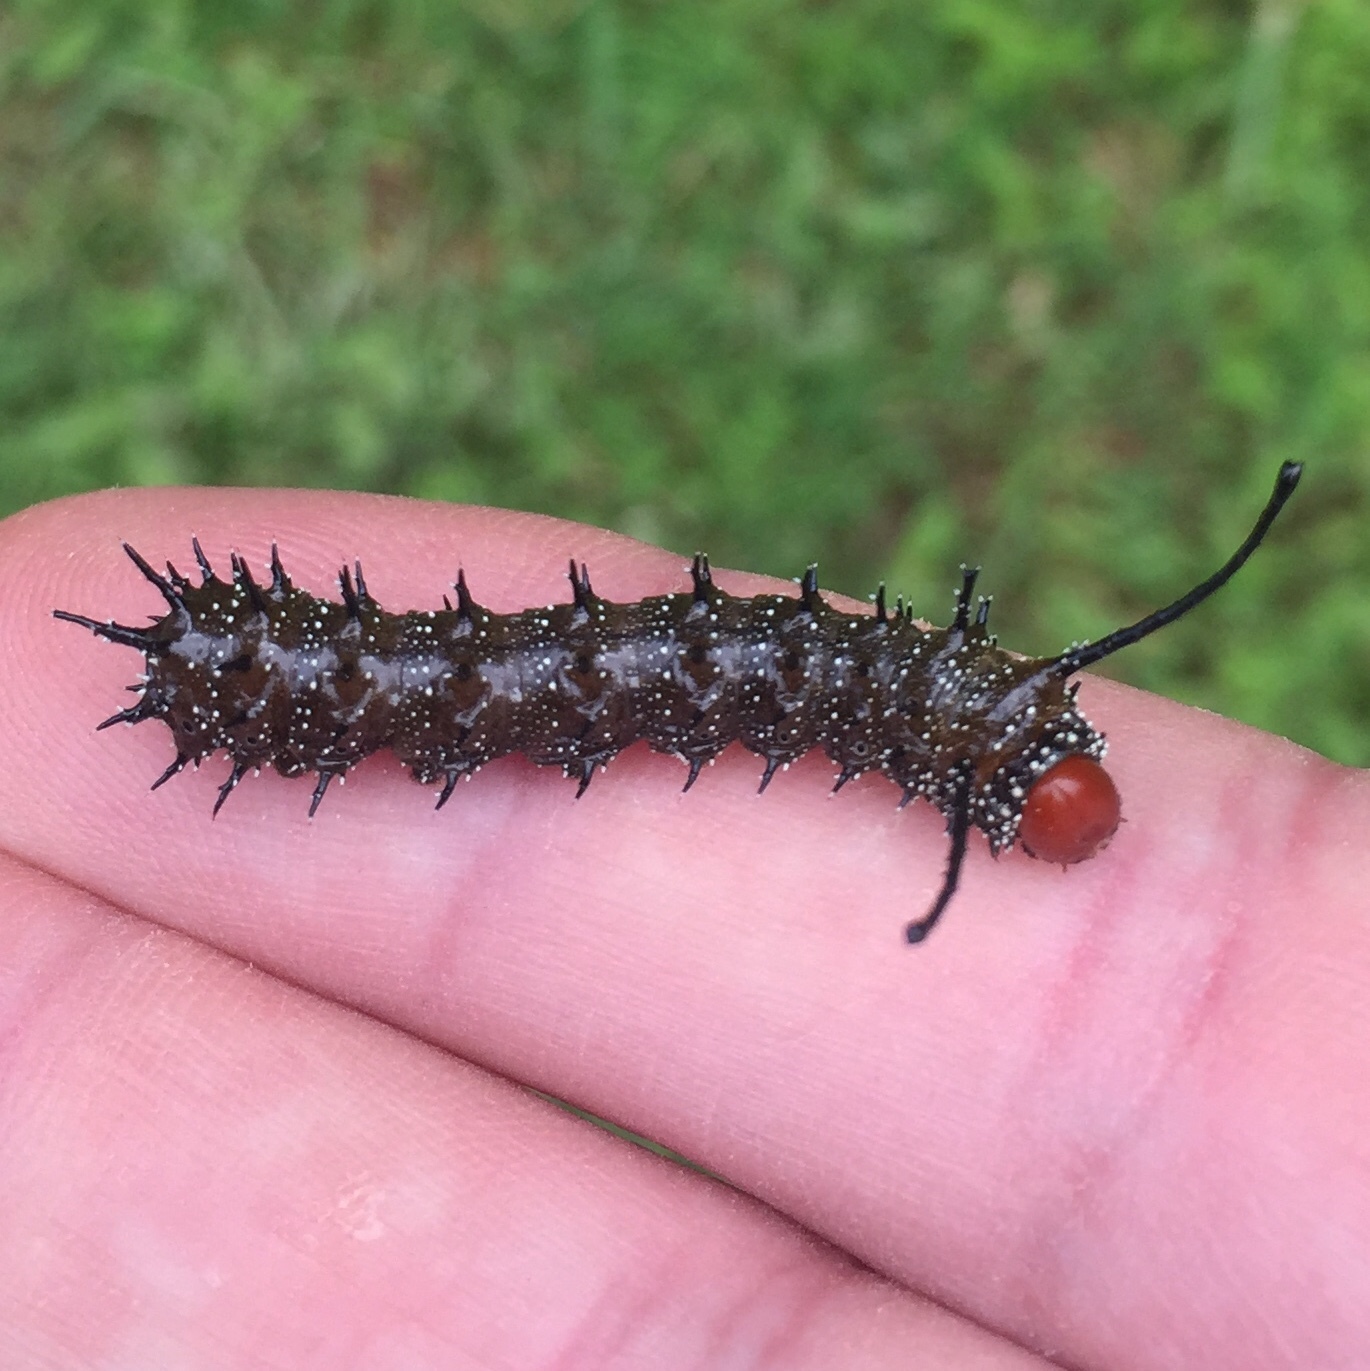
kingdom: Animalia
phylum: Arthropoda
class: Insecta
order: Lepidoptera
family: Saturniidae
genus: Anisota
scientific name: Anisota stigma
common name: Spiny oakworm moth
